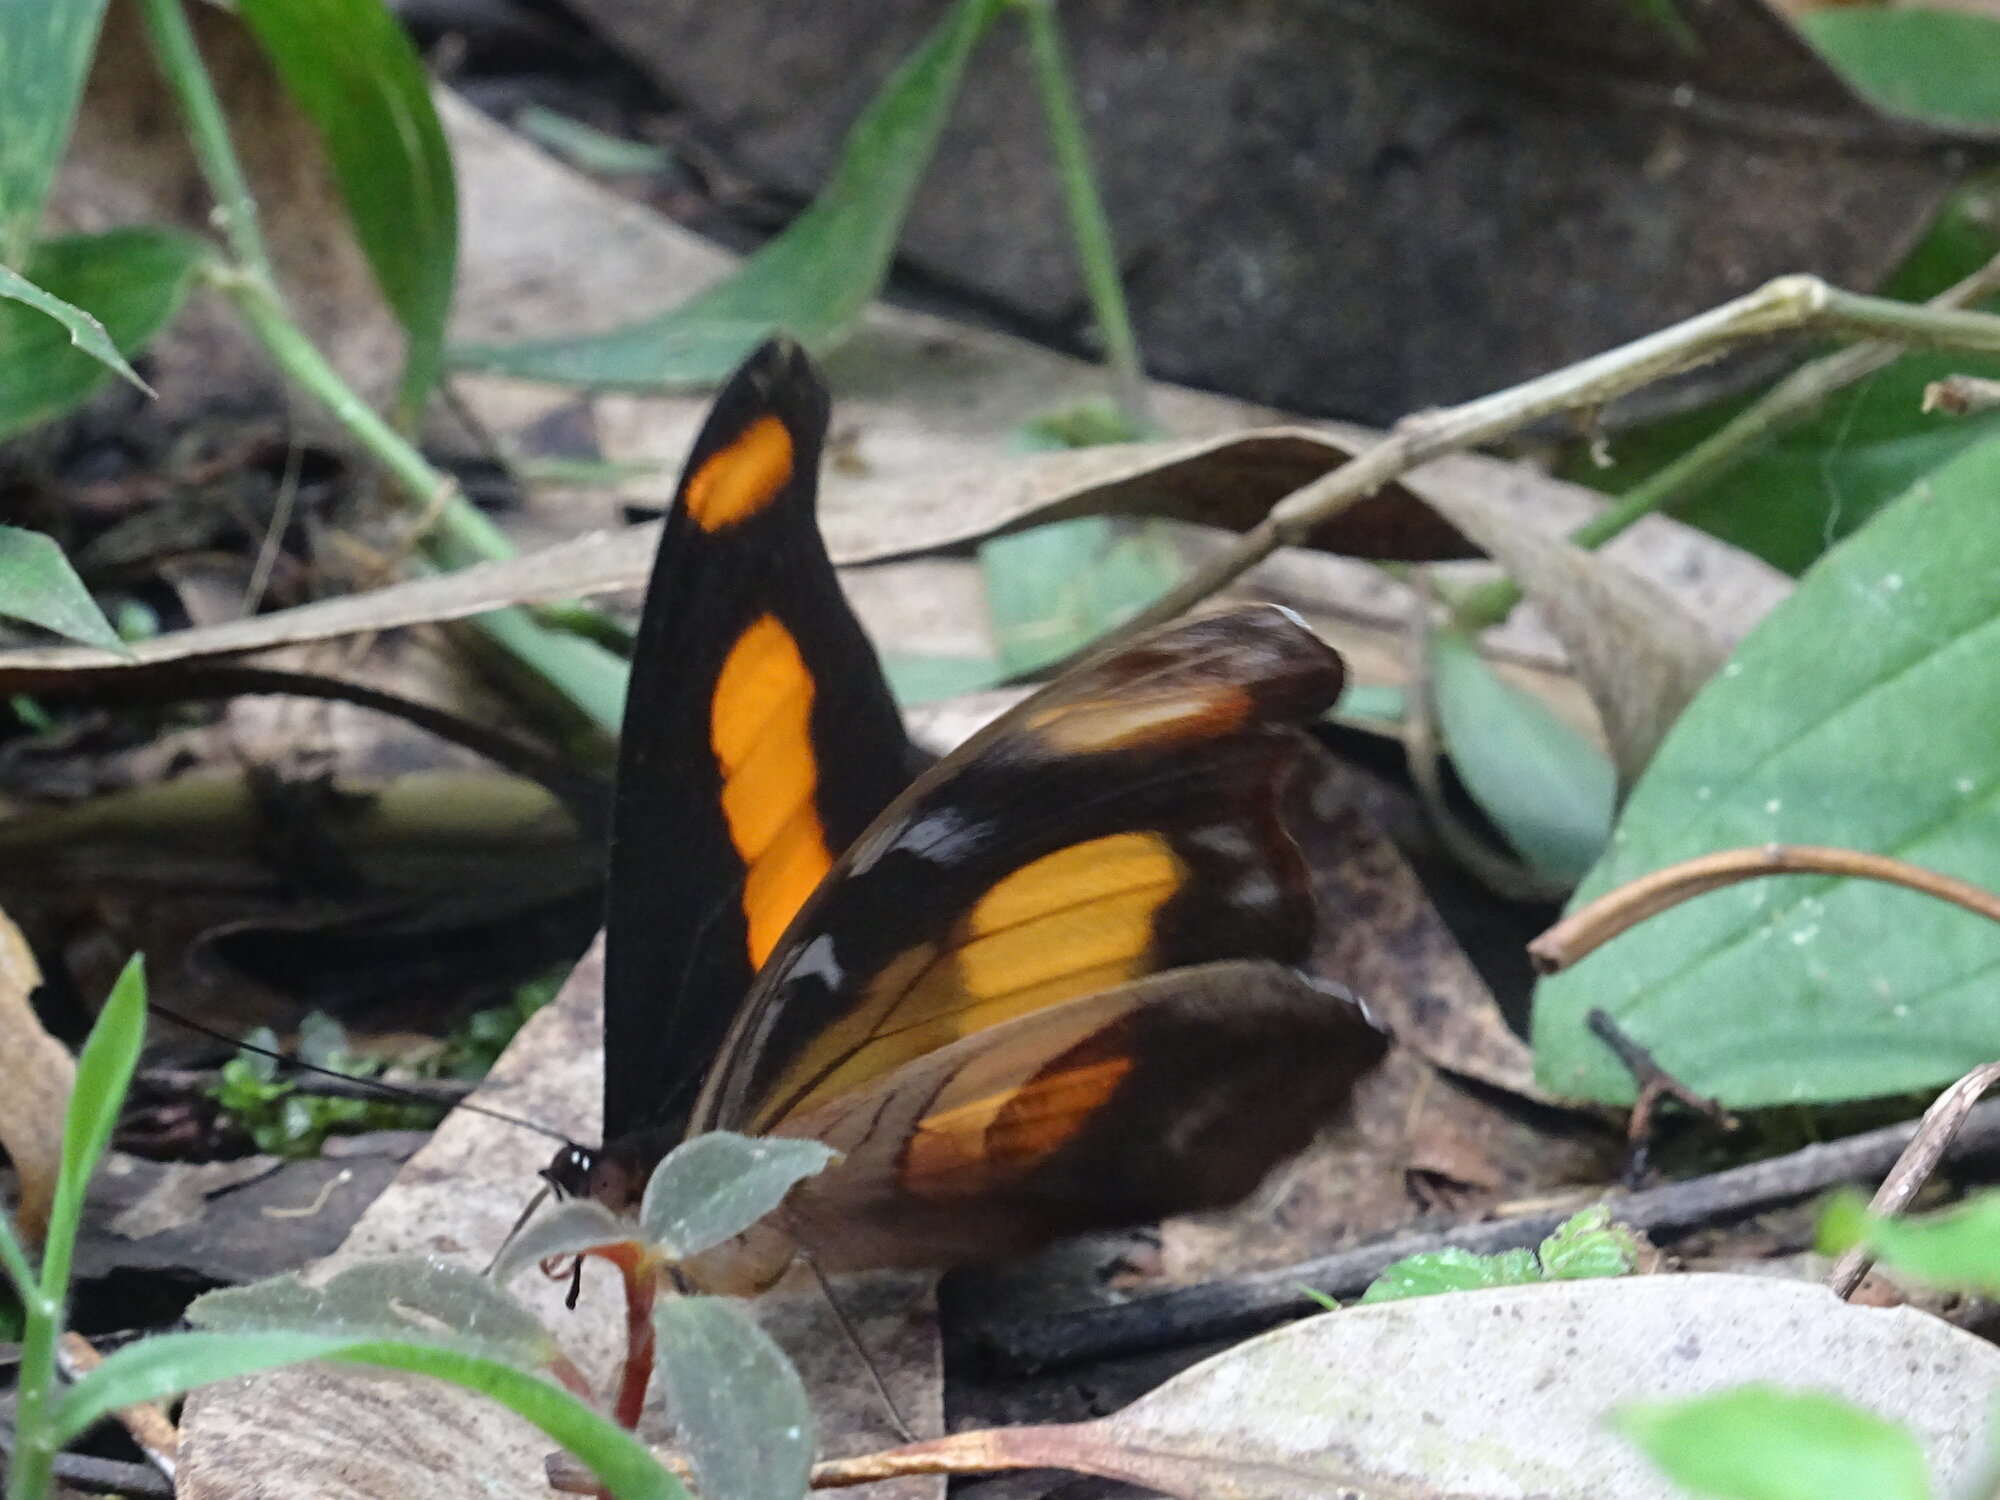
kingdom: Animalia
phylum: Arthropoda
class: Insecta
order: Lepidoptera
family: Nymphalidae
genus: Catonephele
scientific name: Catonephele chromis
